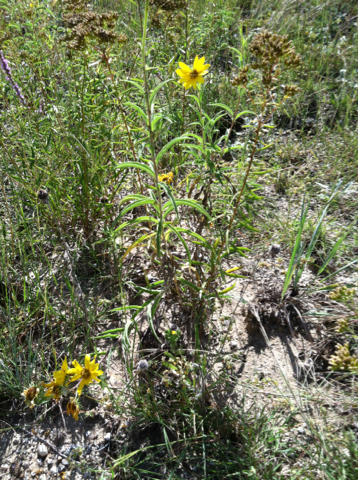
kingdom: Plantae
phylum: Tracheophyta
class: Magnoliopsida
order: Asterales
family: Asteraceae
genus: Helianthus
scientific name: Helianthus maximiliani
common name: Maximilian's sunflower
